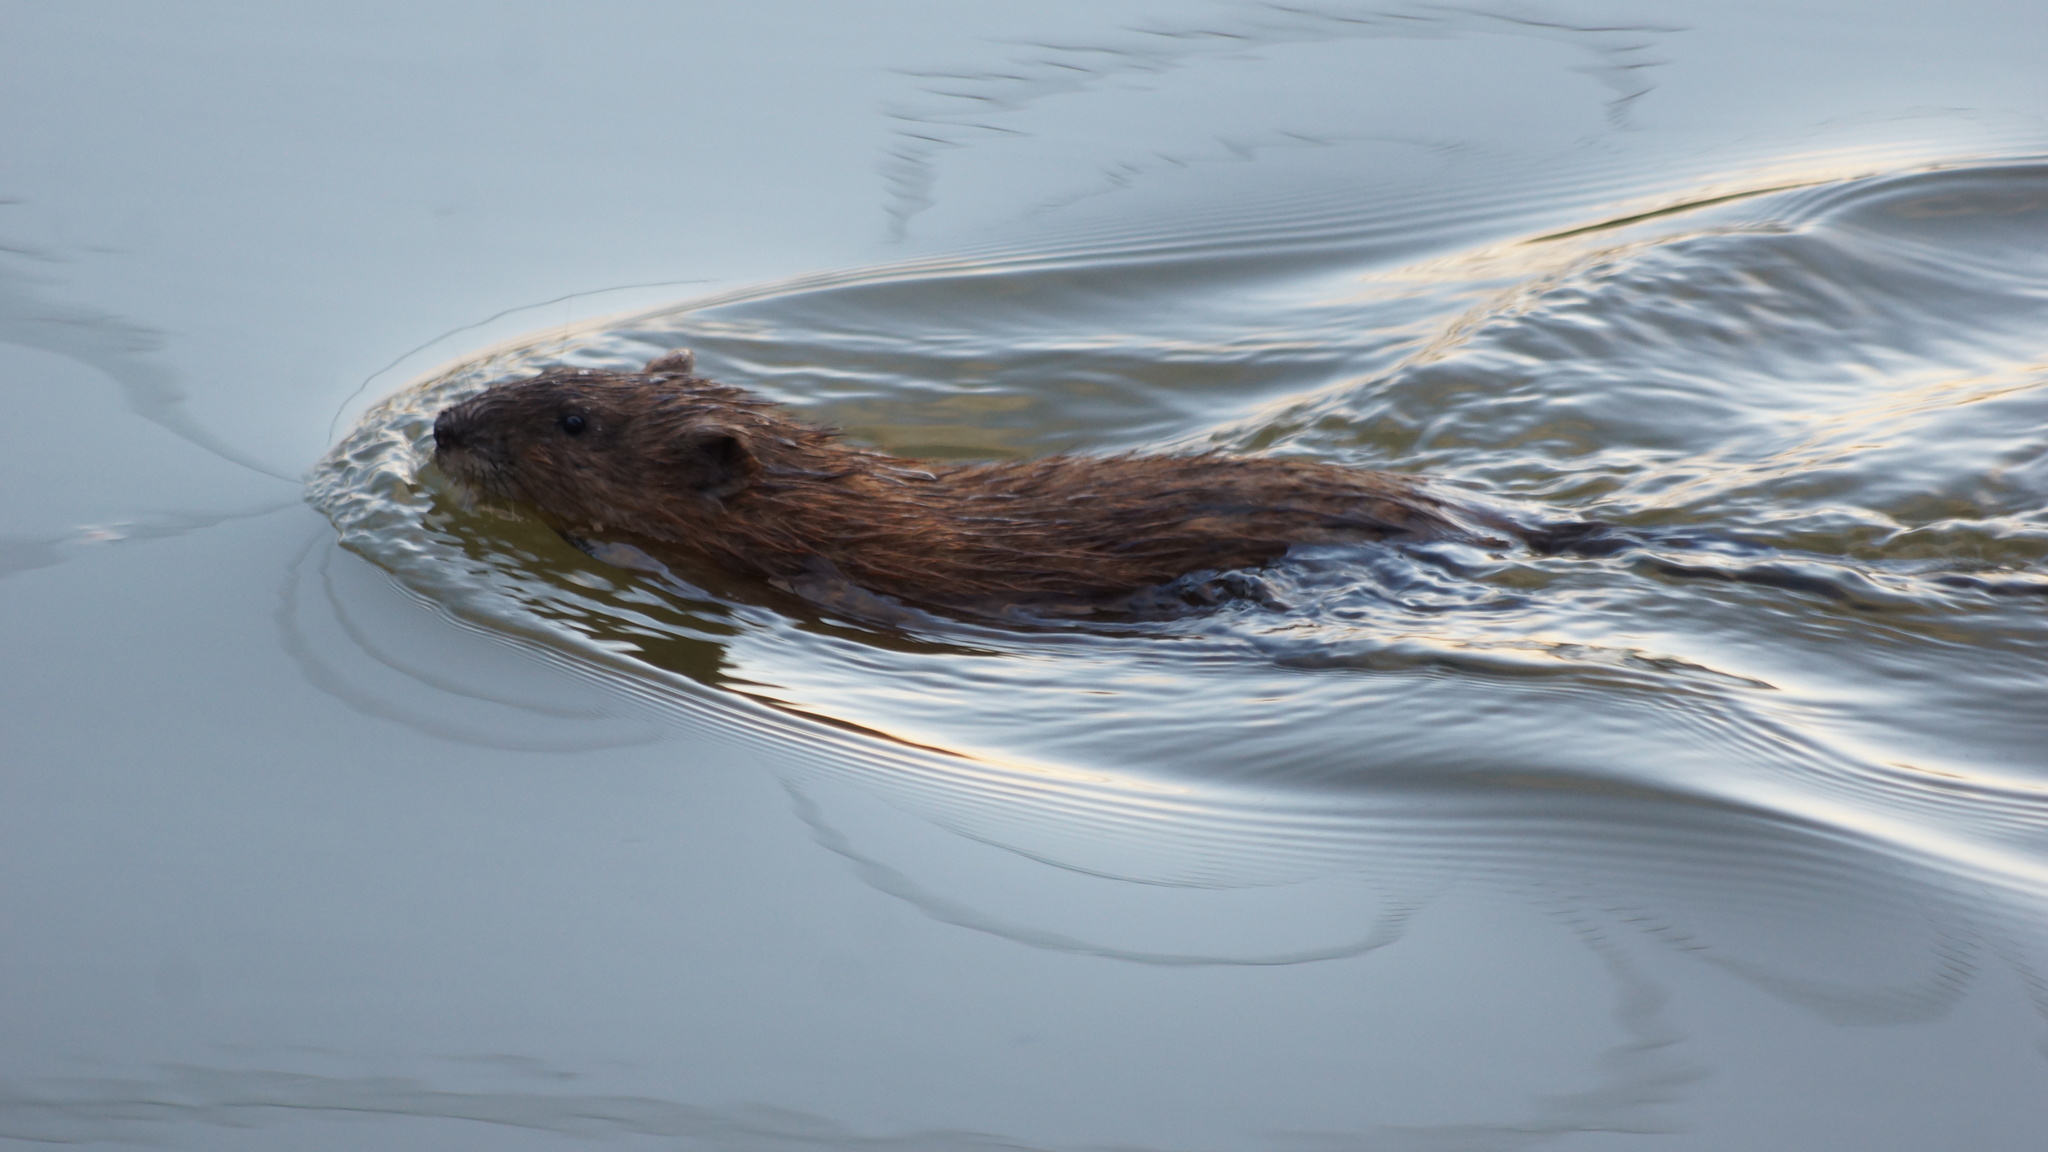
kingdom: Animalia
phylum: Chordata
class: Mammalia
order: Rodentia
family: Cricetidae
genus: Ondatra
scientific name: Ondatra zibethicus
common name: Muskrat
